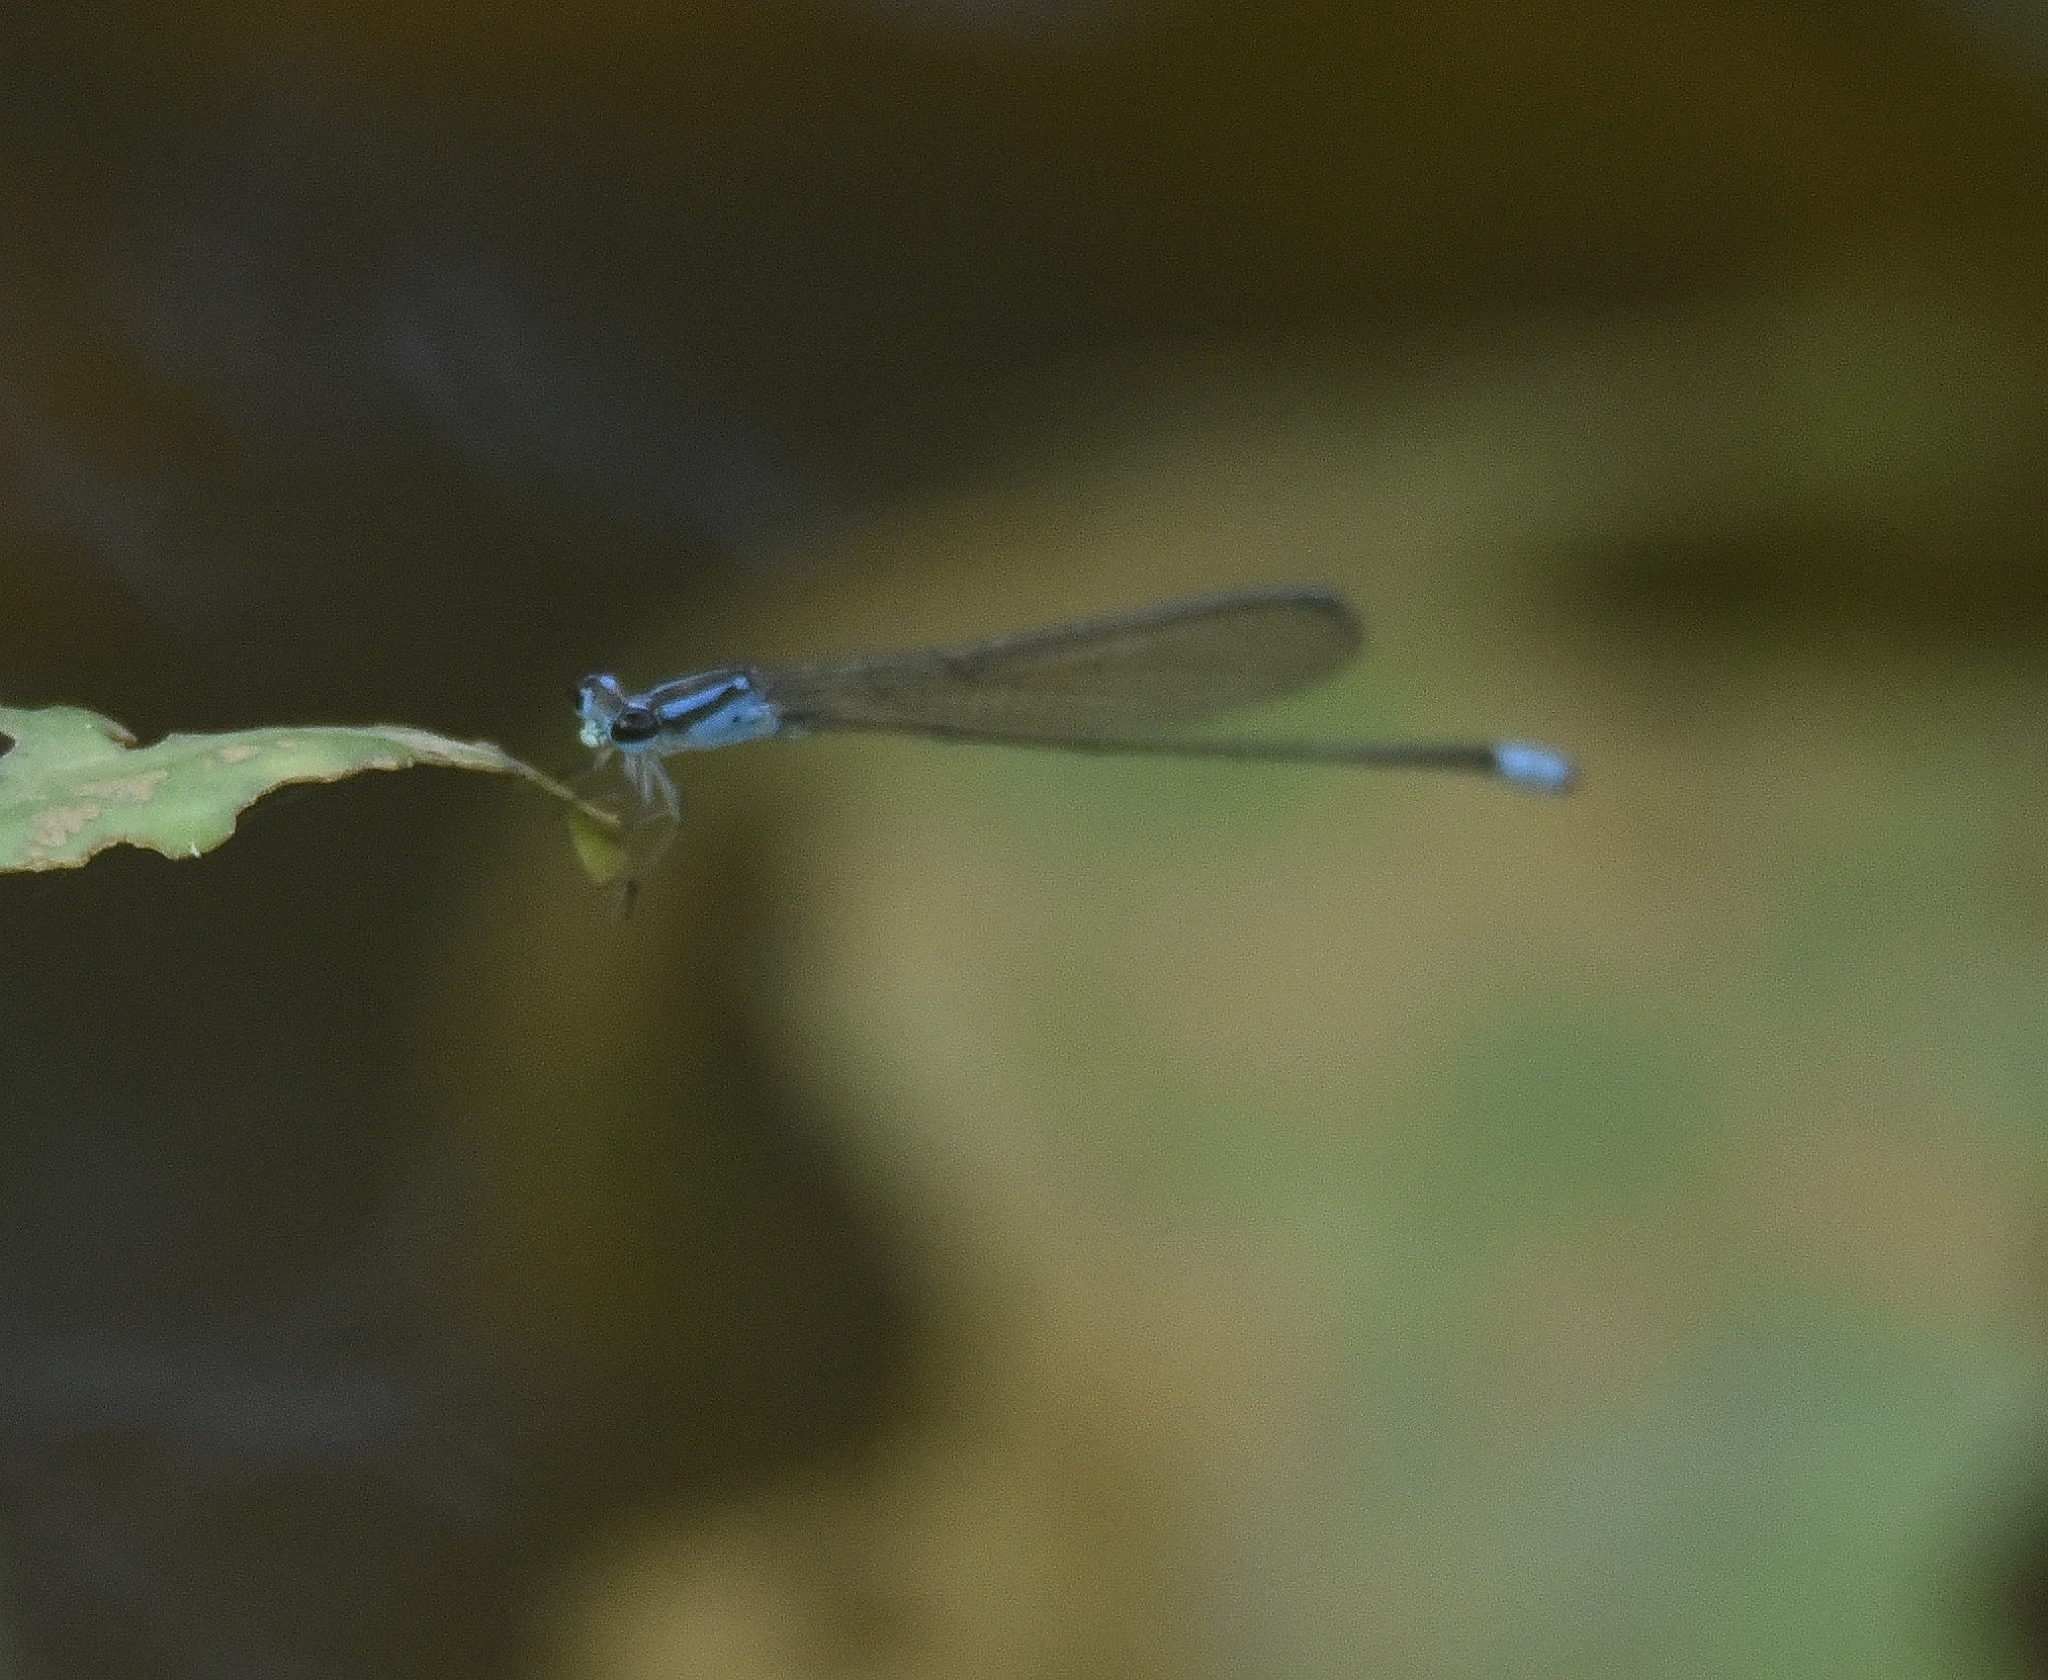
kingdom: Animalia
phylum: Arthropoda
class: Insecta
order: Odonata
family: Coenagrionidae
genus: Archibasis
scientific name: Archibasis oscillans
